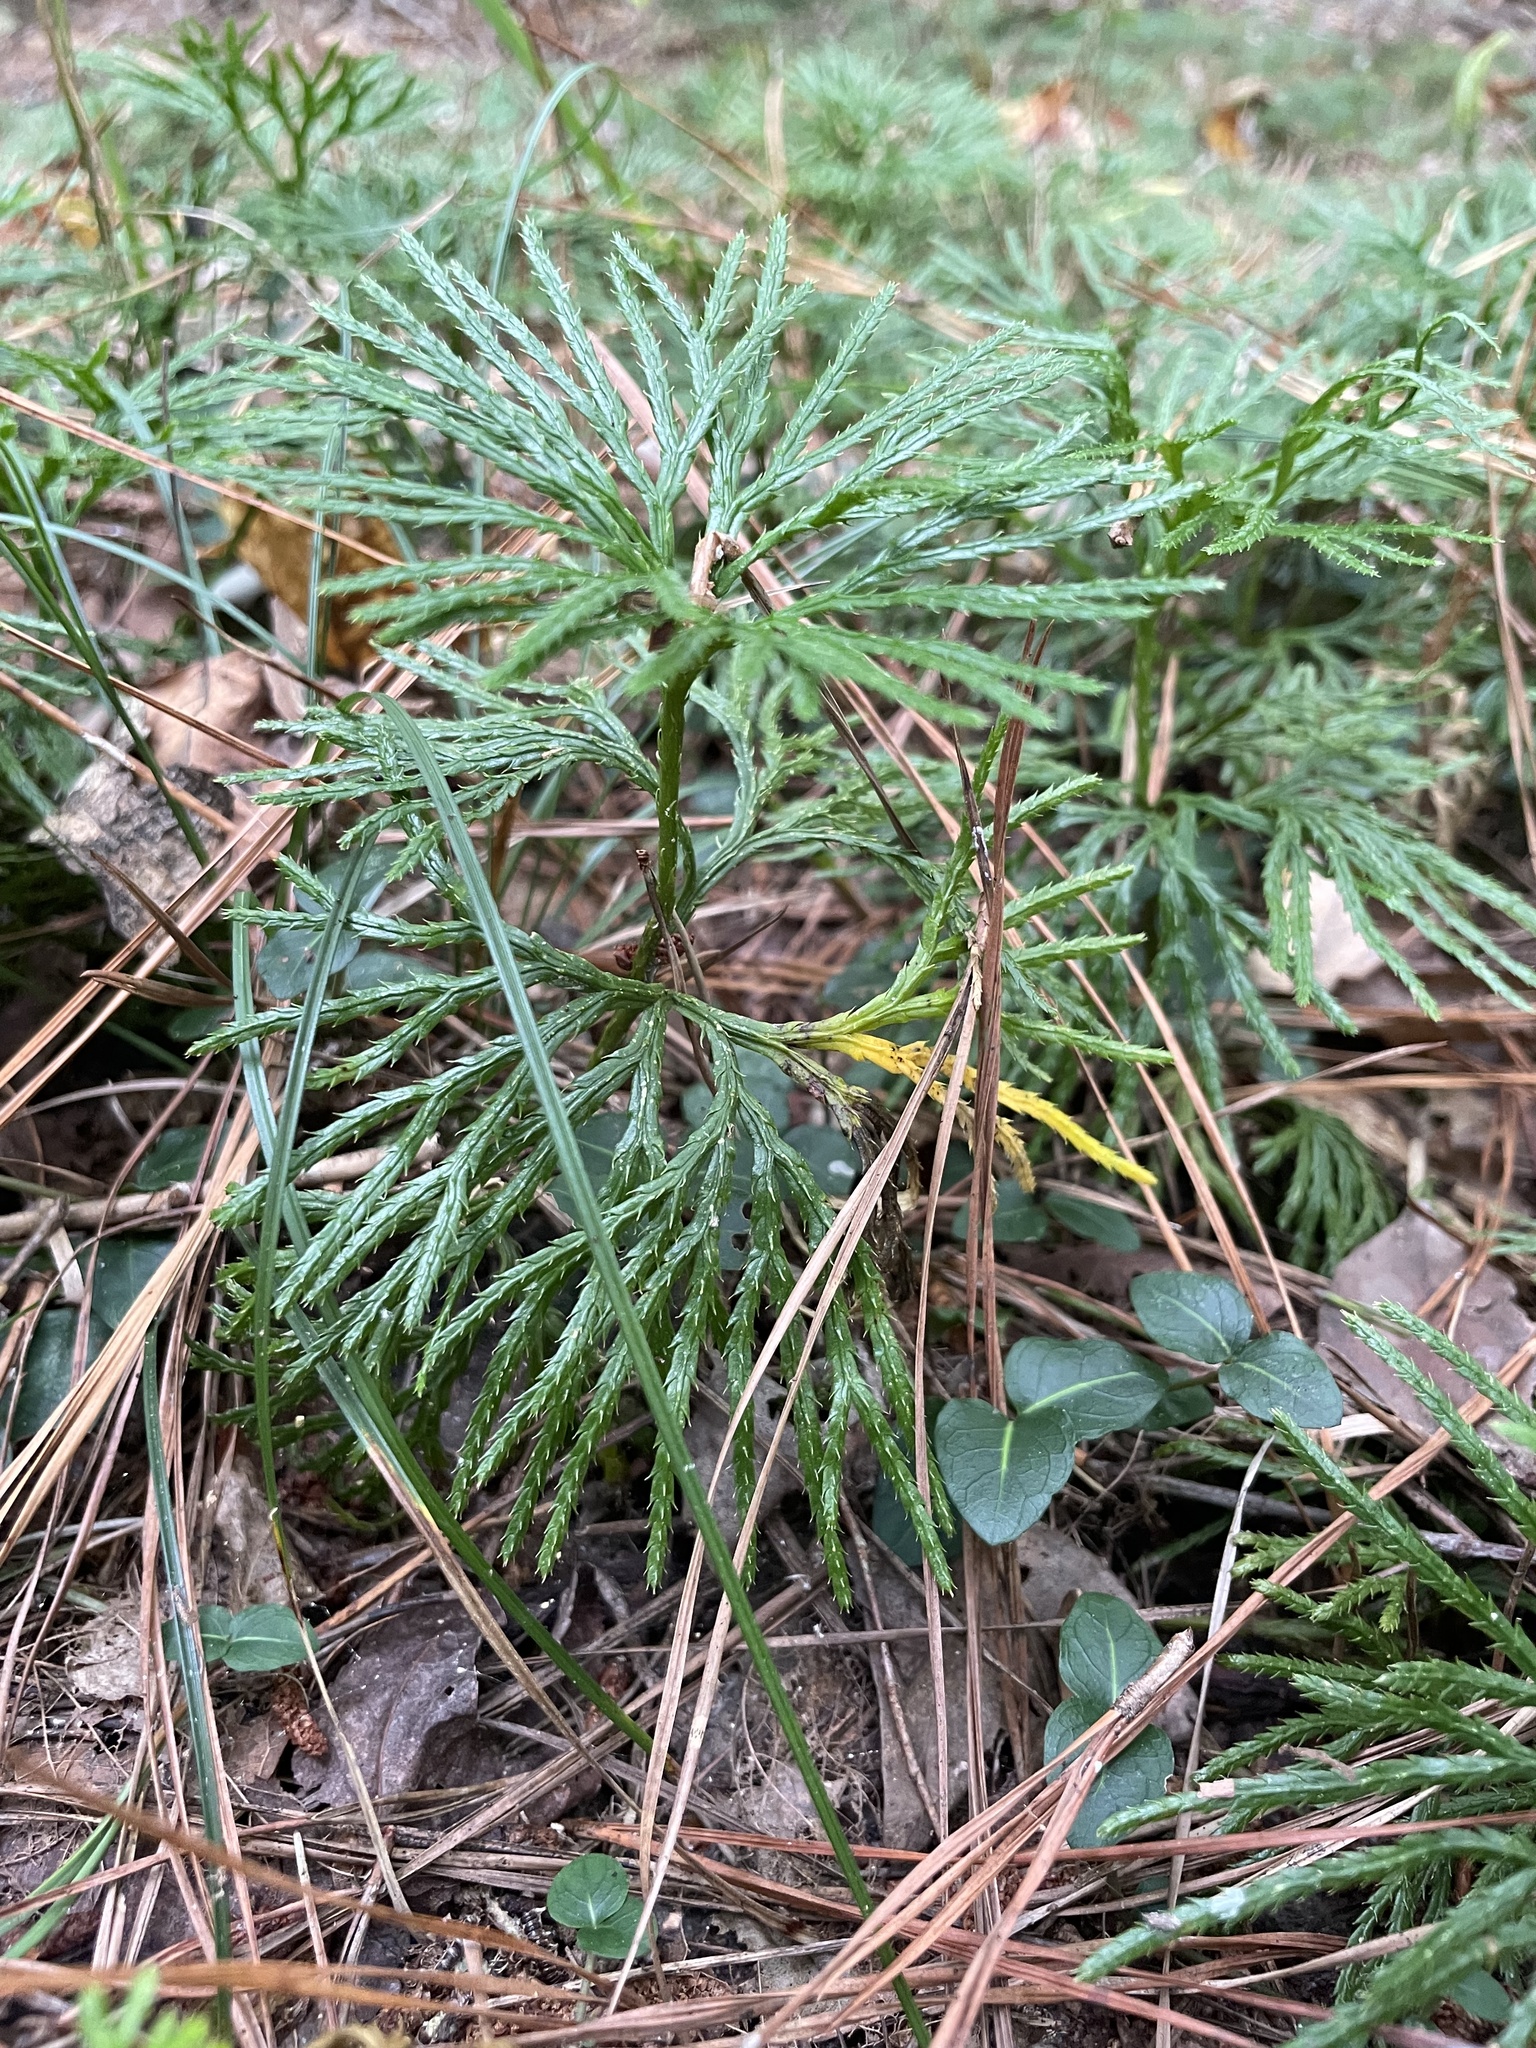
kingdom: Plantae
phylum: Tracheophyta
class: Lycopodiopsida
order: Lycopodiales
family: Lycopodiaceae
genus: Diphasiastrum
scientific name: Diphasiastrum digitatum
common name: Southern running-pine
